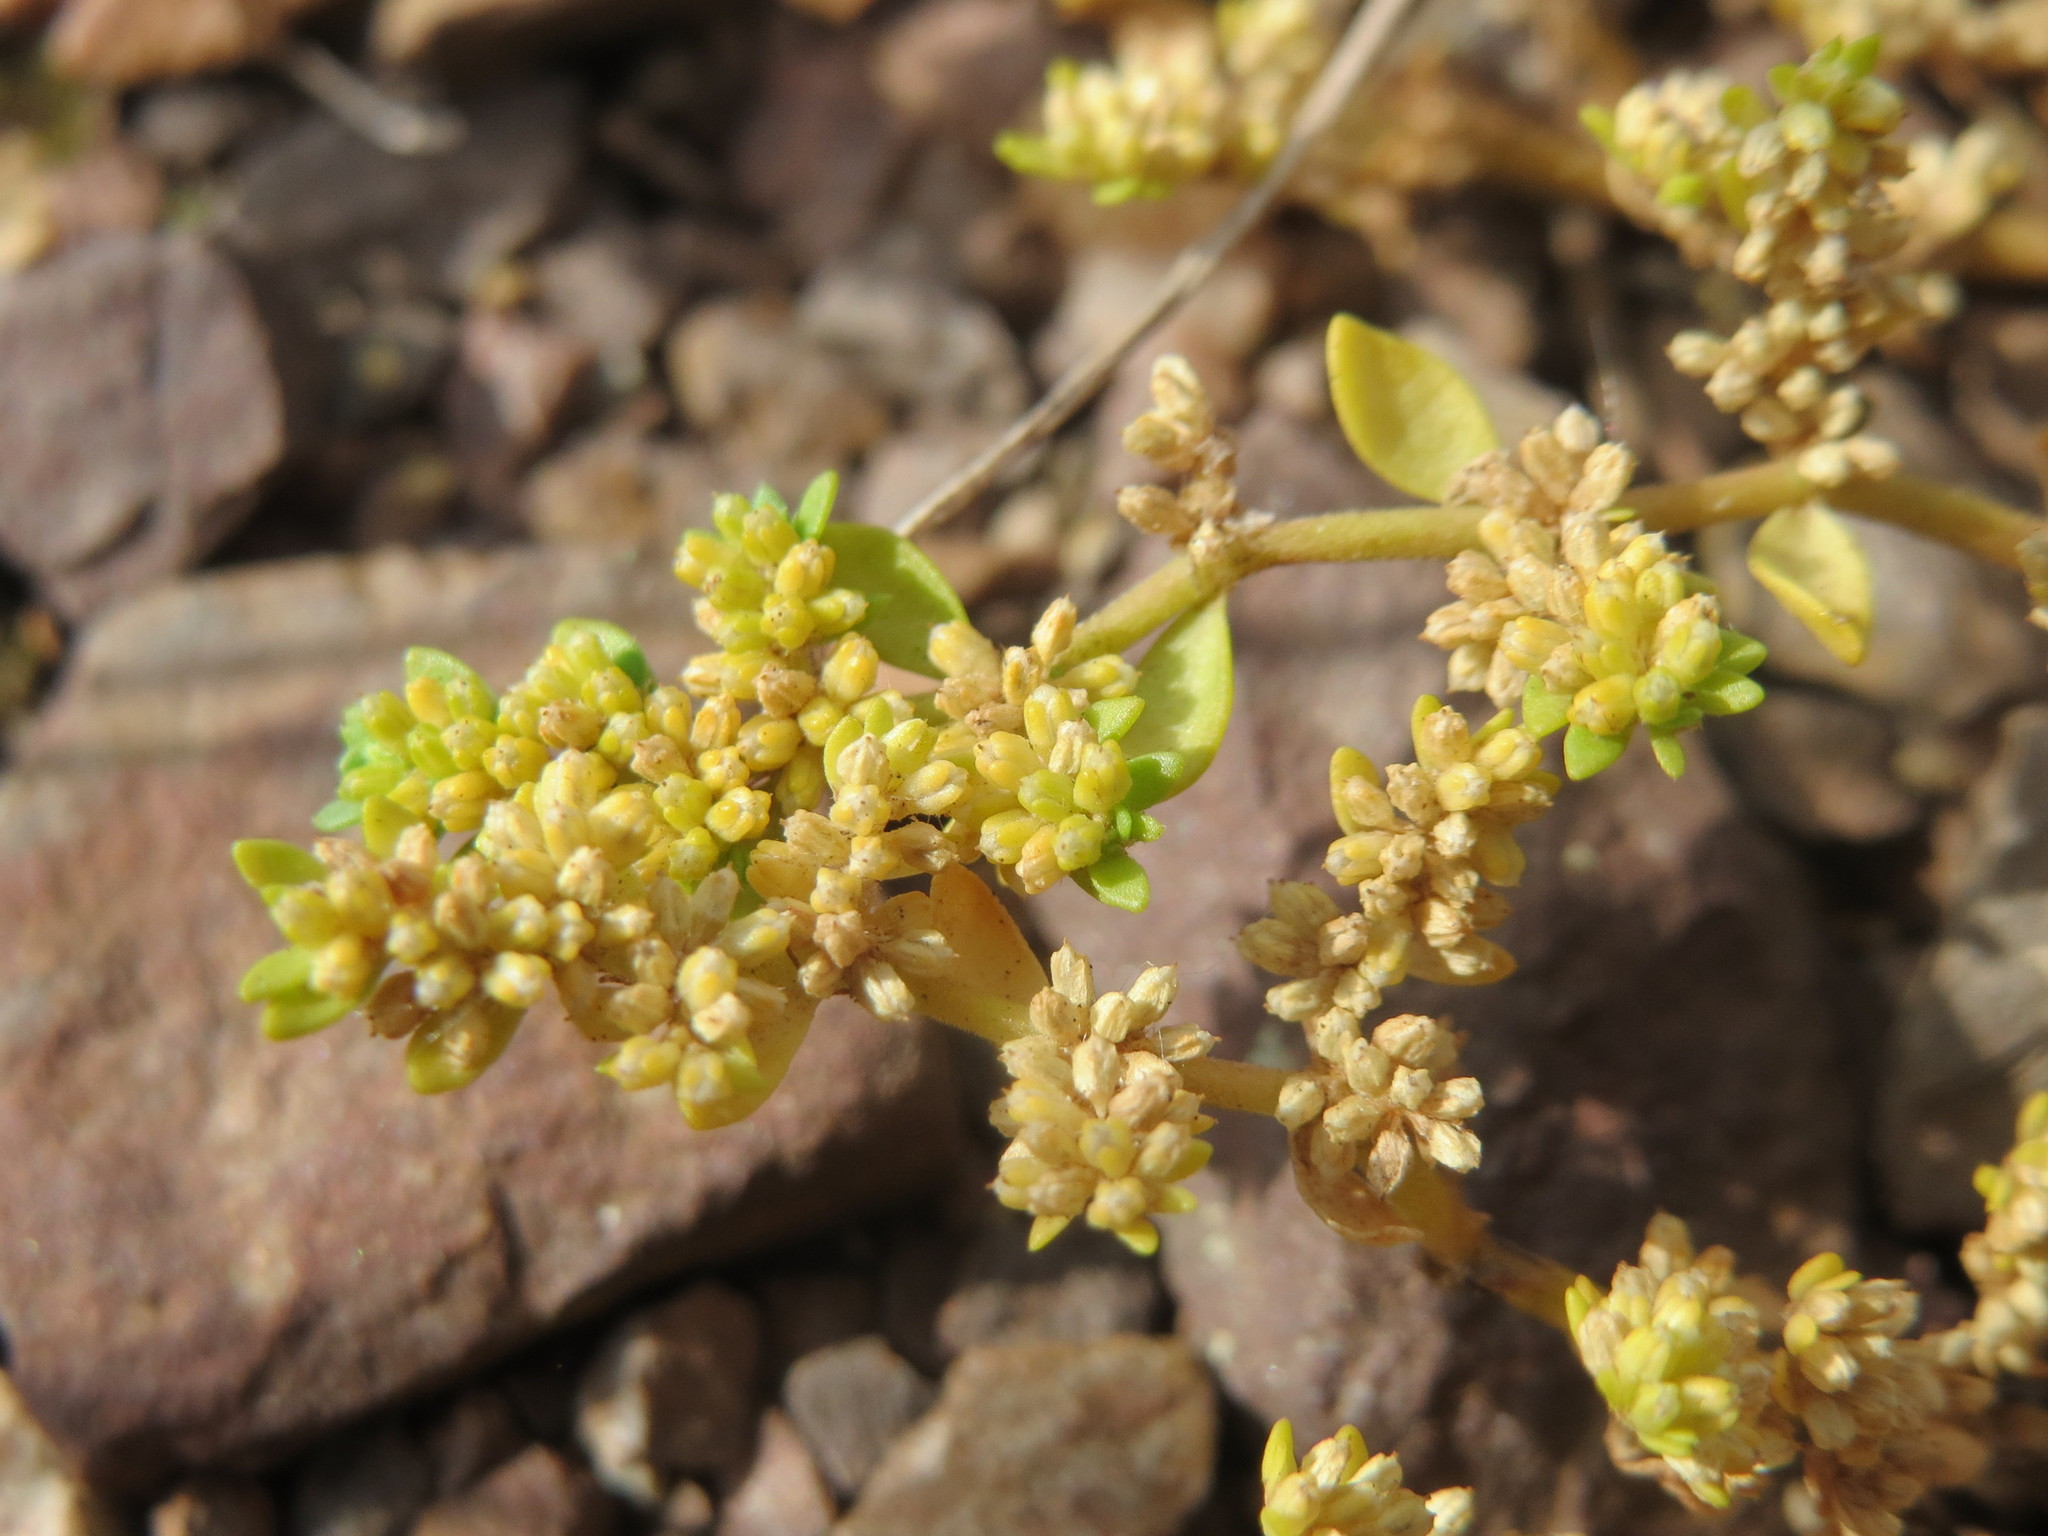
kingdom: Plantae
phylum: Tracheophyta
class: Magnoliopsida
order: Caryophyllales
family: Caryophyllaceae
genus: Herniaria
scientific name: Herniaria glabra
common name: Smooth rupturewort
